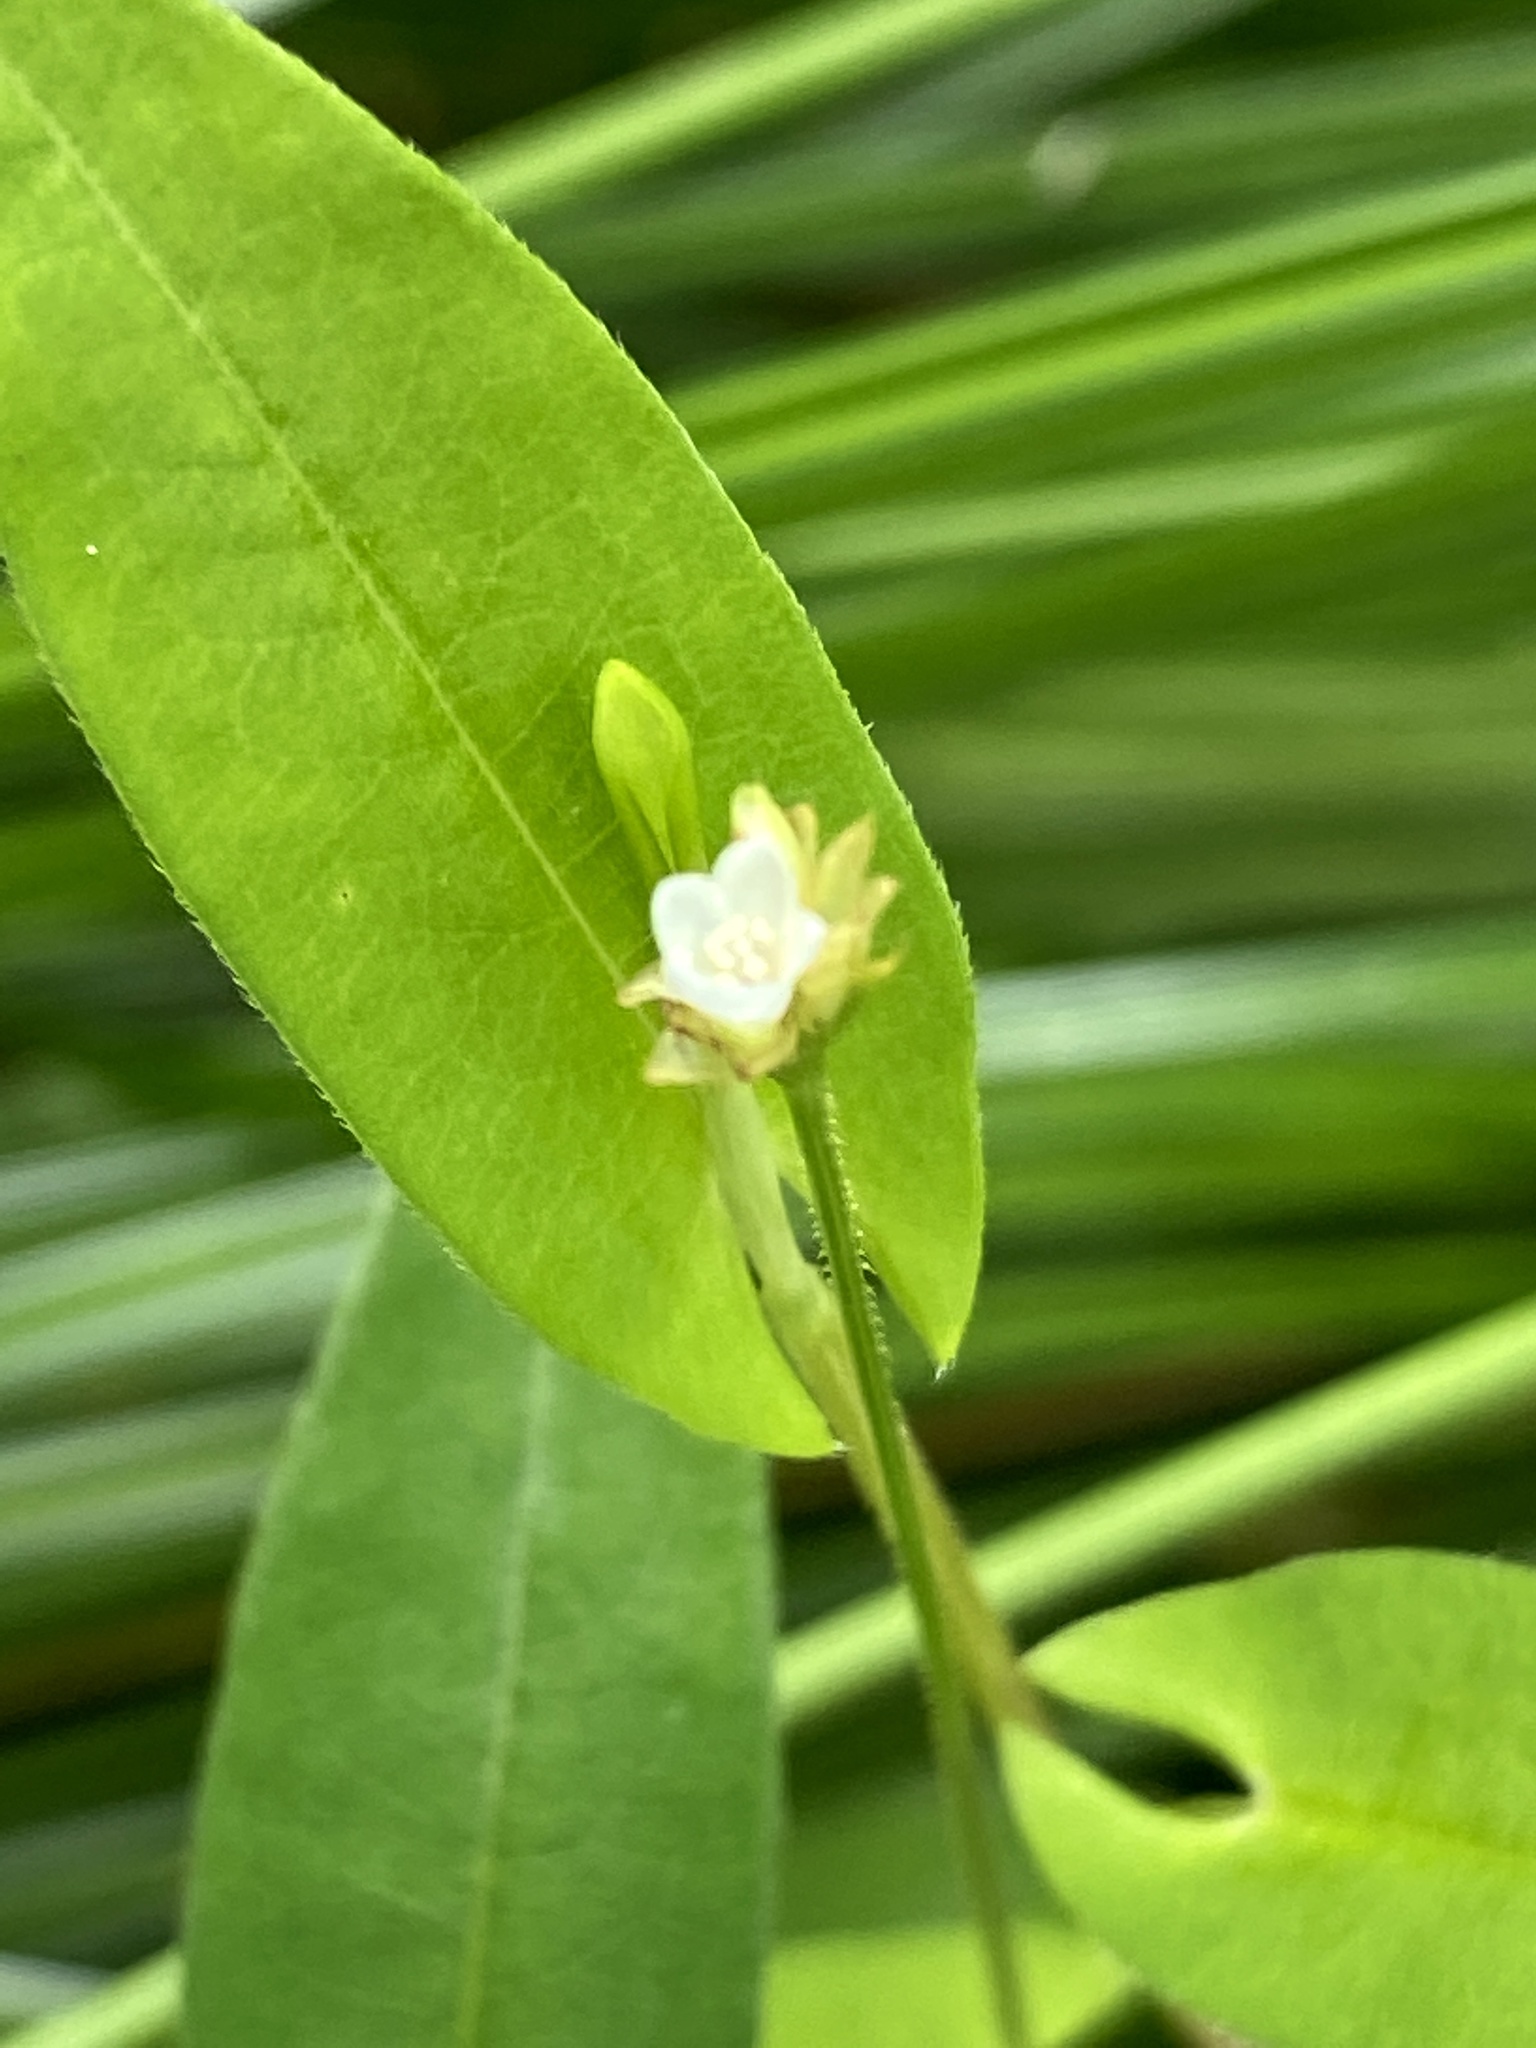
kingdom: Plantae
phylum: Tracheophyta
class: Magnoliopsida
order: Caryophyllales
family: Polygonaceae
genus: Persicaria
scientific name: Persicaria sagittata
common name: American tearthumb
